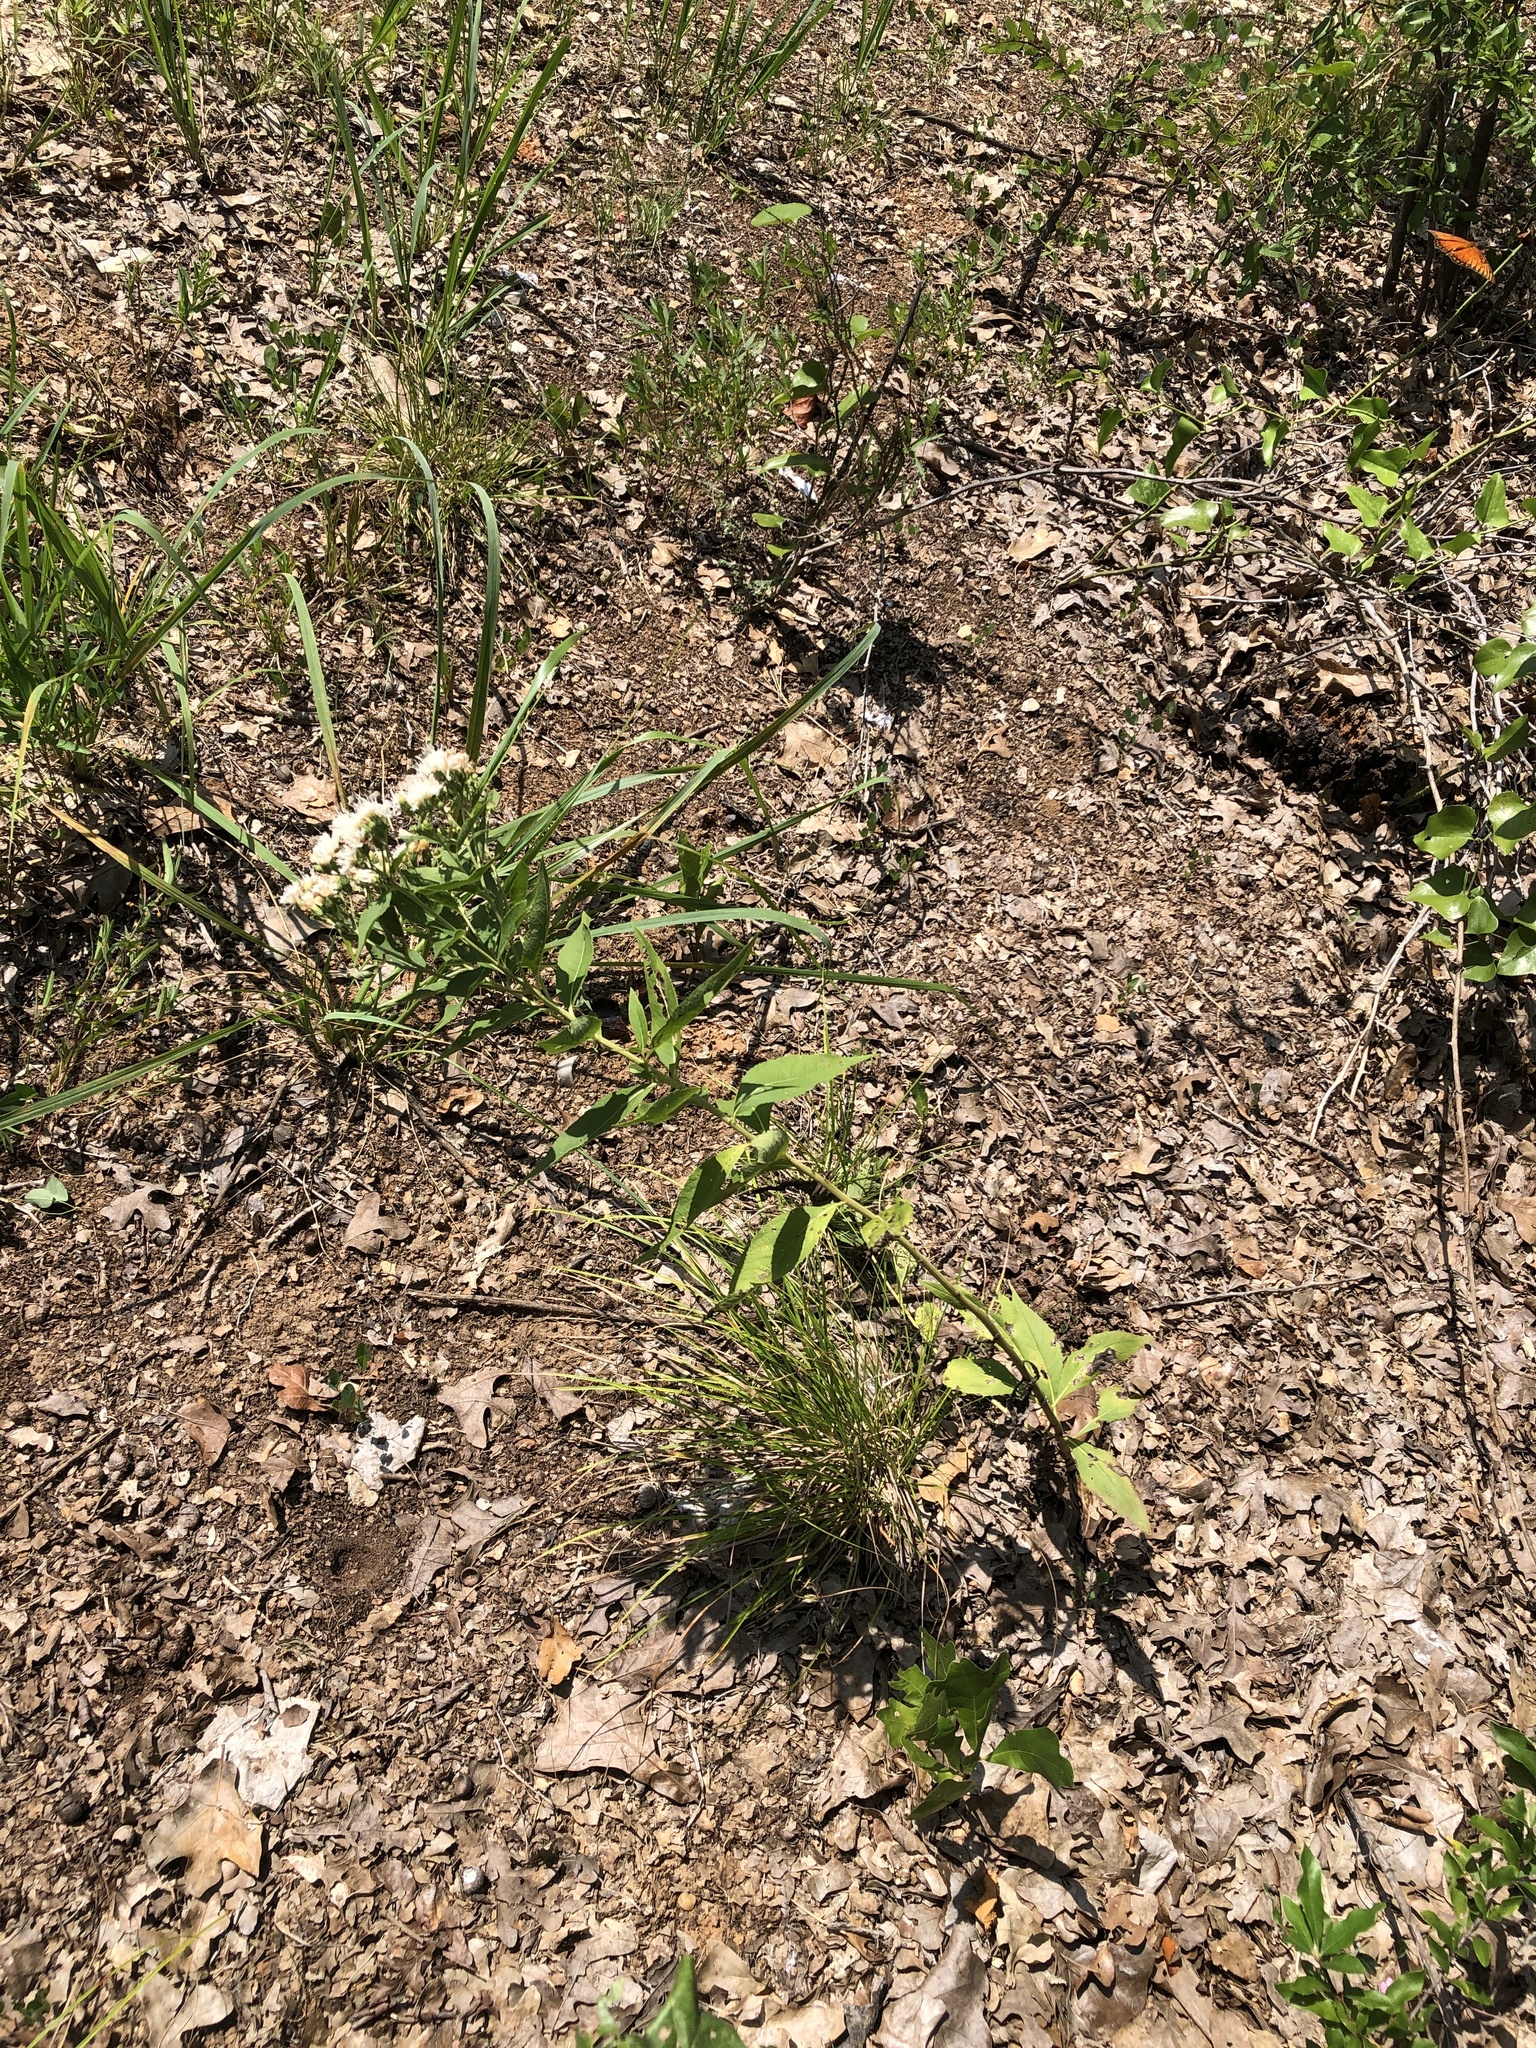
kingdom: Plantae
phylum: Tracheophyta
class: Magnoliopsida
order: Asterales
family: Asteraceae
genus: Vernonia
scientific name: Vernonia baldwinii
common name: Western ironweed
